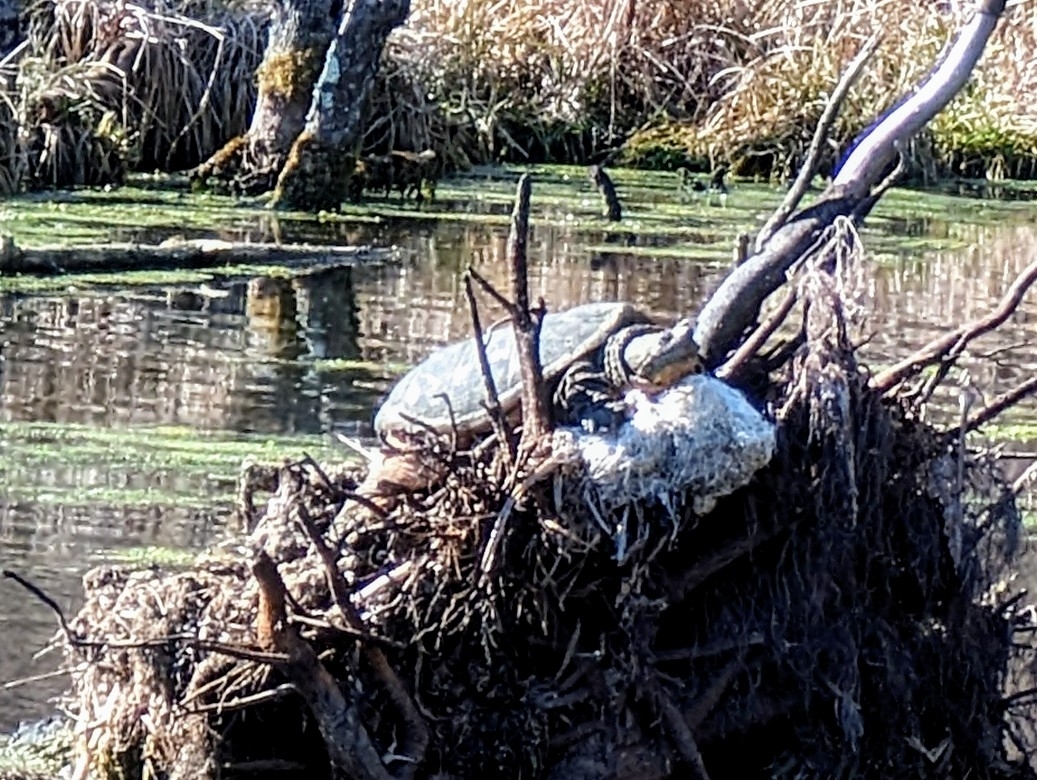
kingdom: Animalia
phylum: Chordata
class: Testudines
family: Chelydridae
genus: Chelydra
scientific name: Chelydra serpentina
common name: Common snapping turtle
